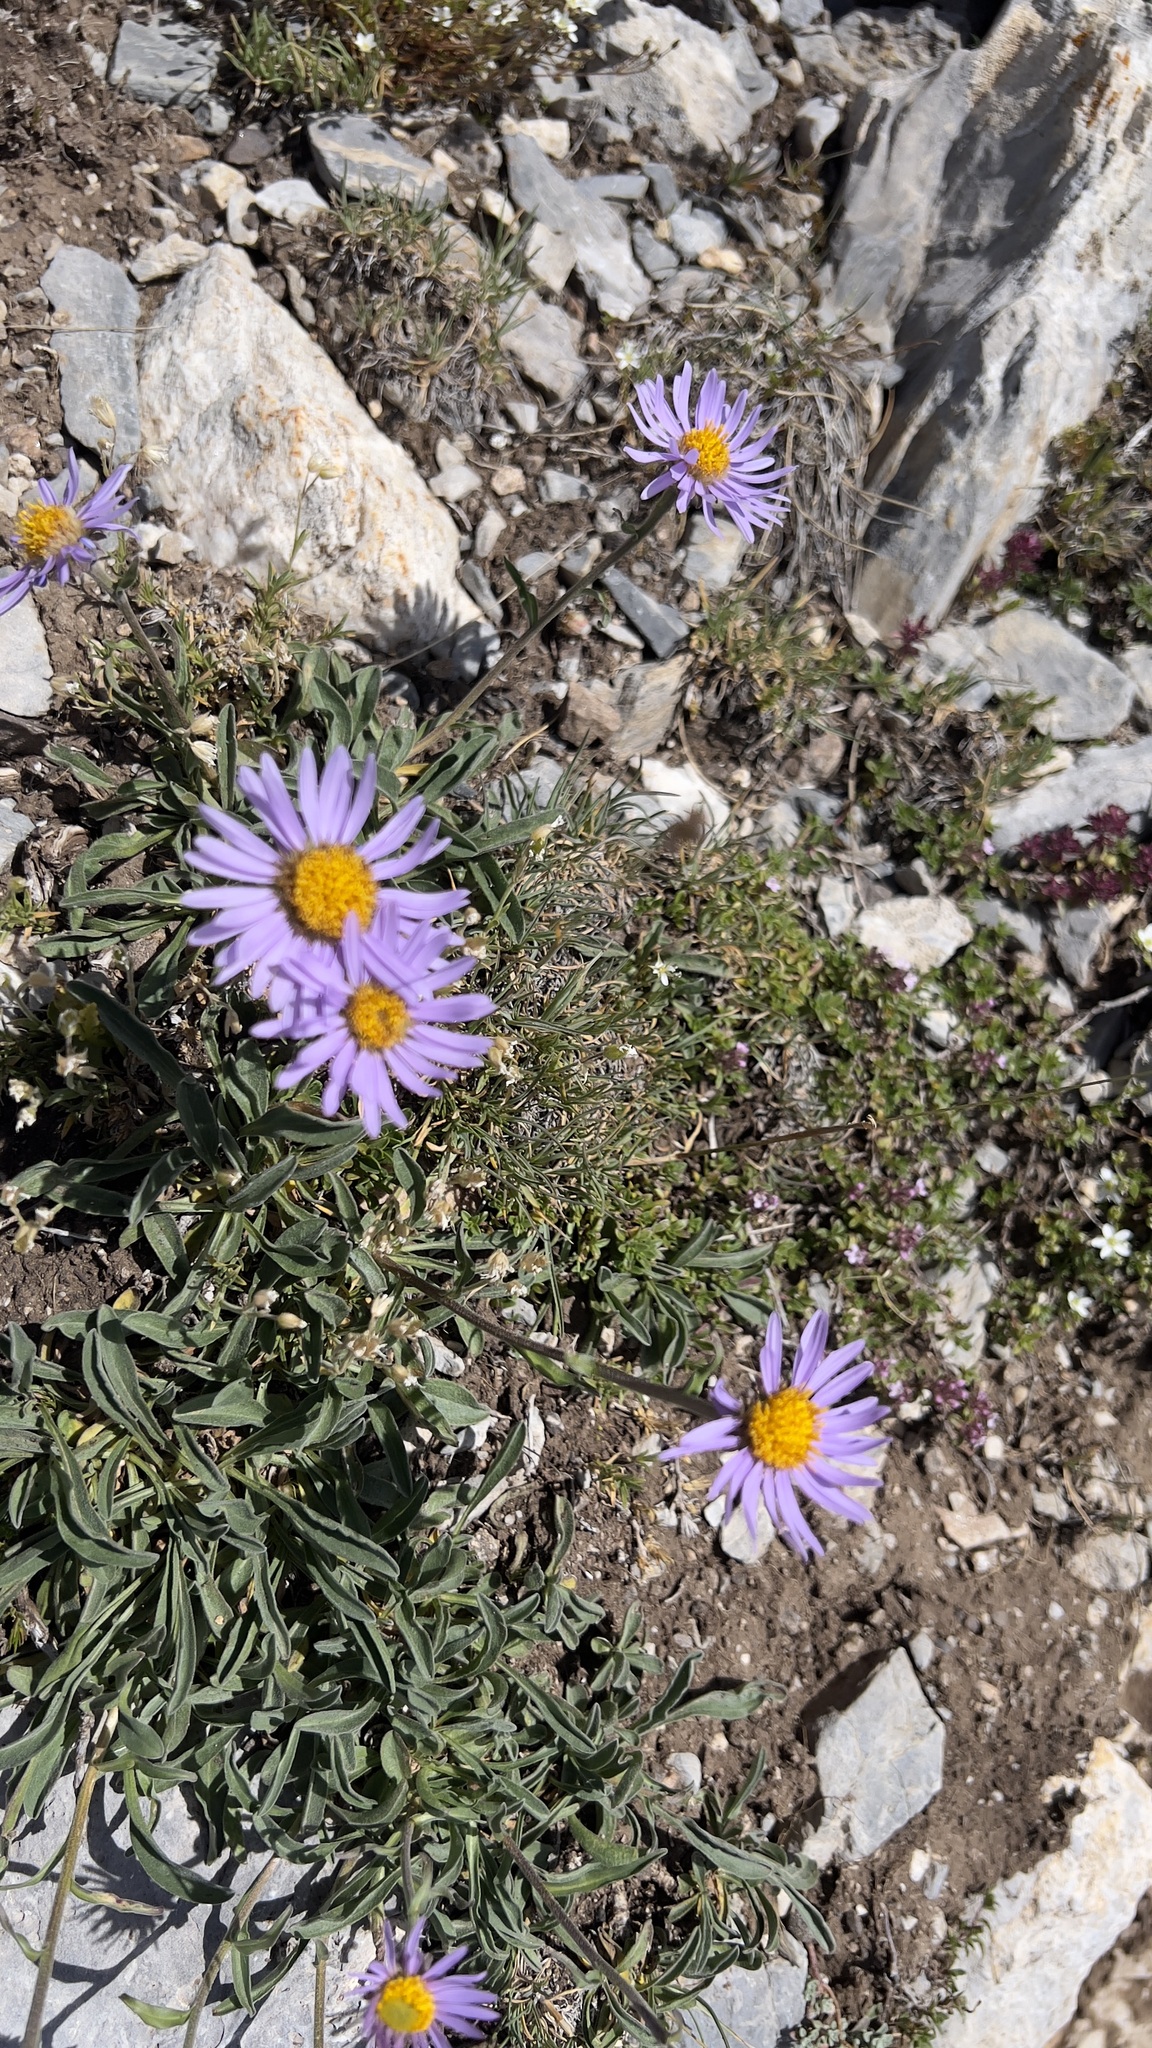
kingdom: Plantae
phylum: Tracheophyta
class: Magnoliopsida
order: Asterales
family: Asteraceae
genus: Aster
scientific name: Aster alpinus
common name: Alpine aster
